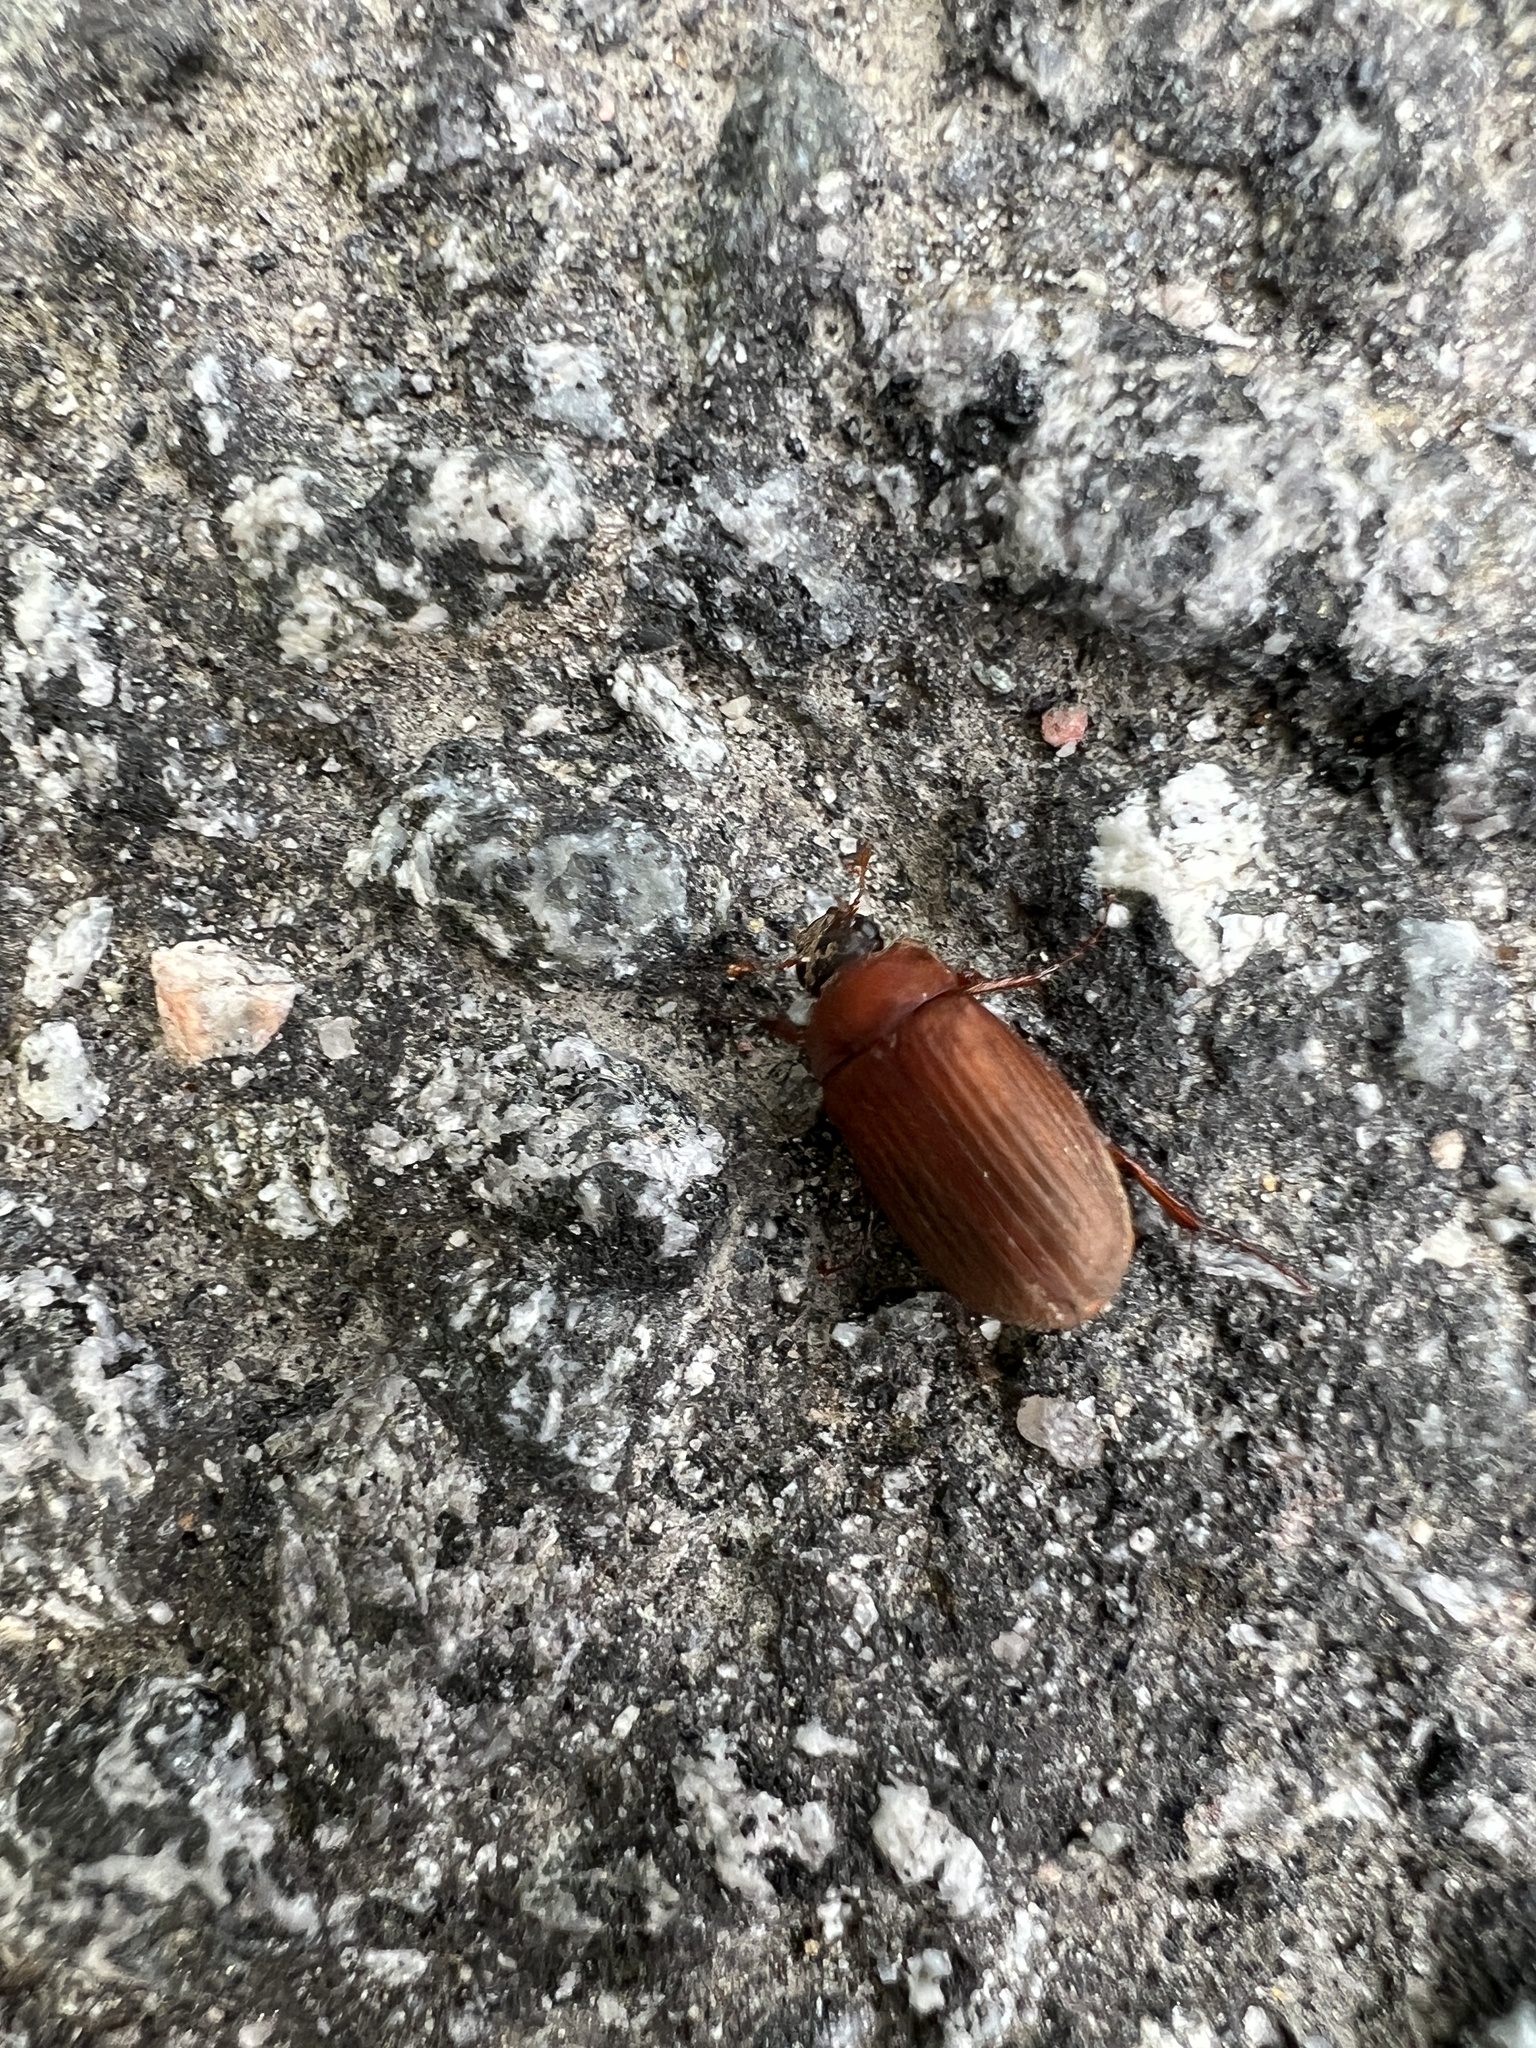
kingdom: Animalia
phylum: Arthropoda
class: Insecta
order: Coleoptera
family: Scarabaeidae
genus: Serica
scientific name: Serica brunnea
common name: Brown chafer
